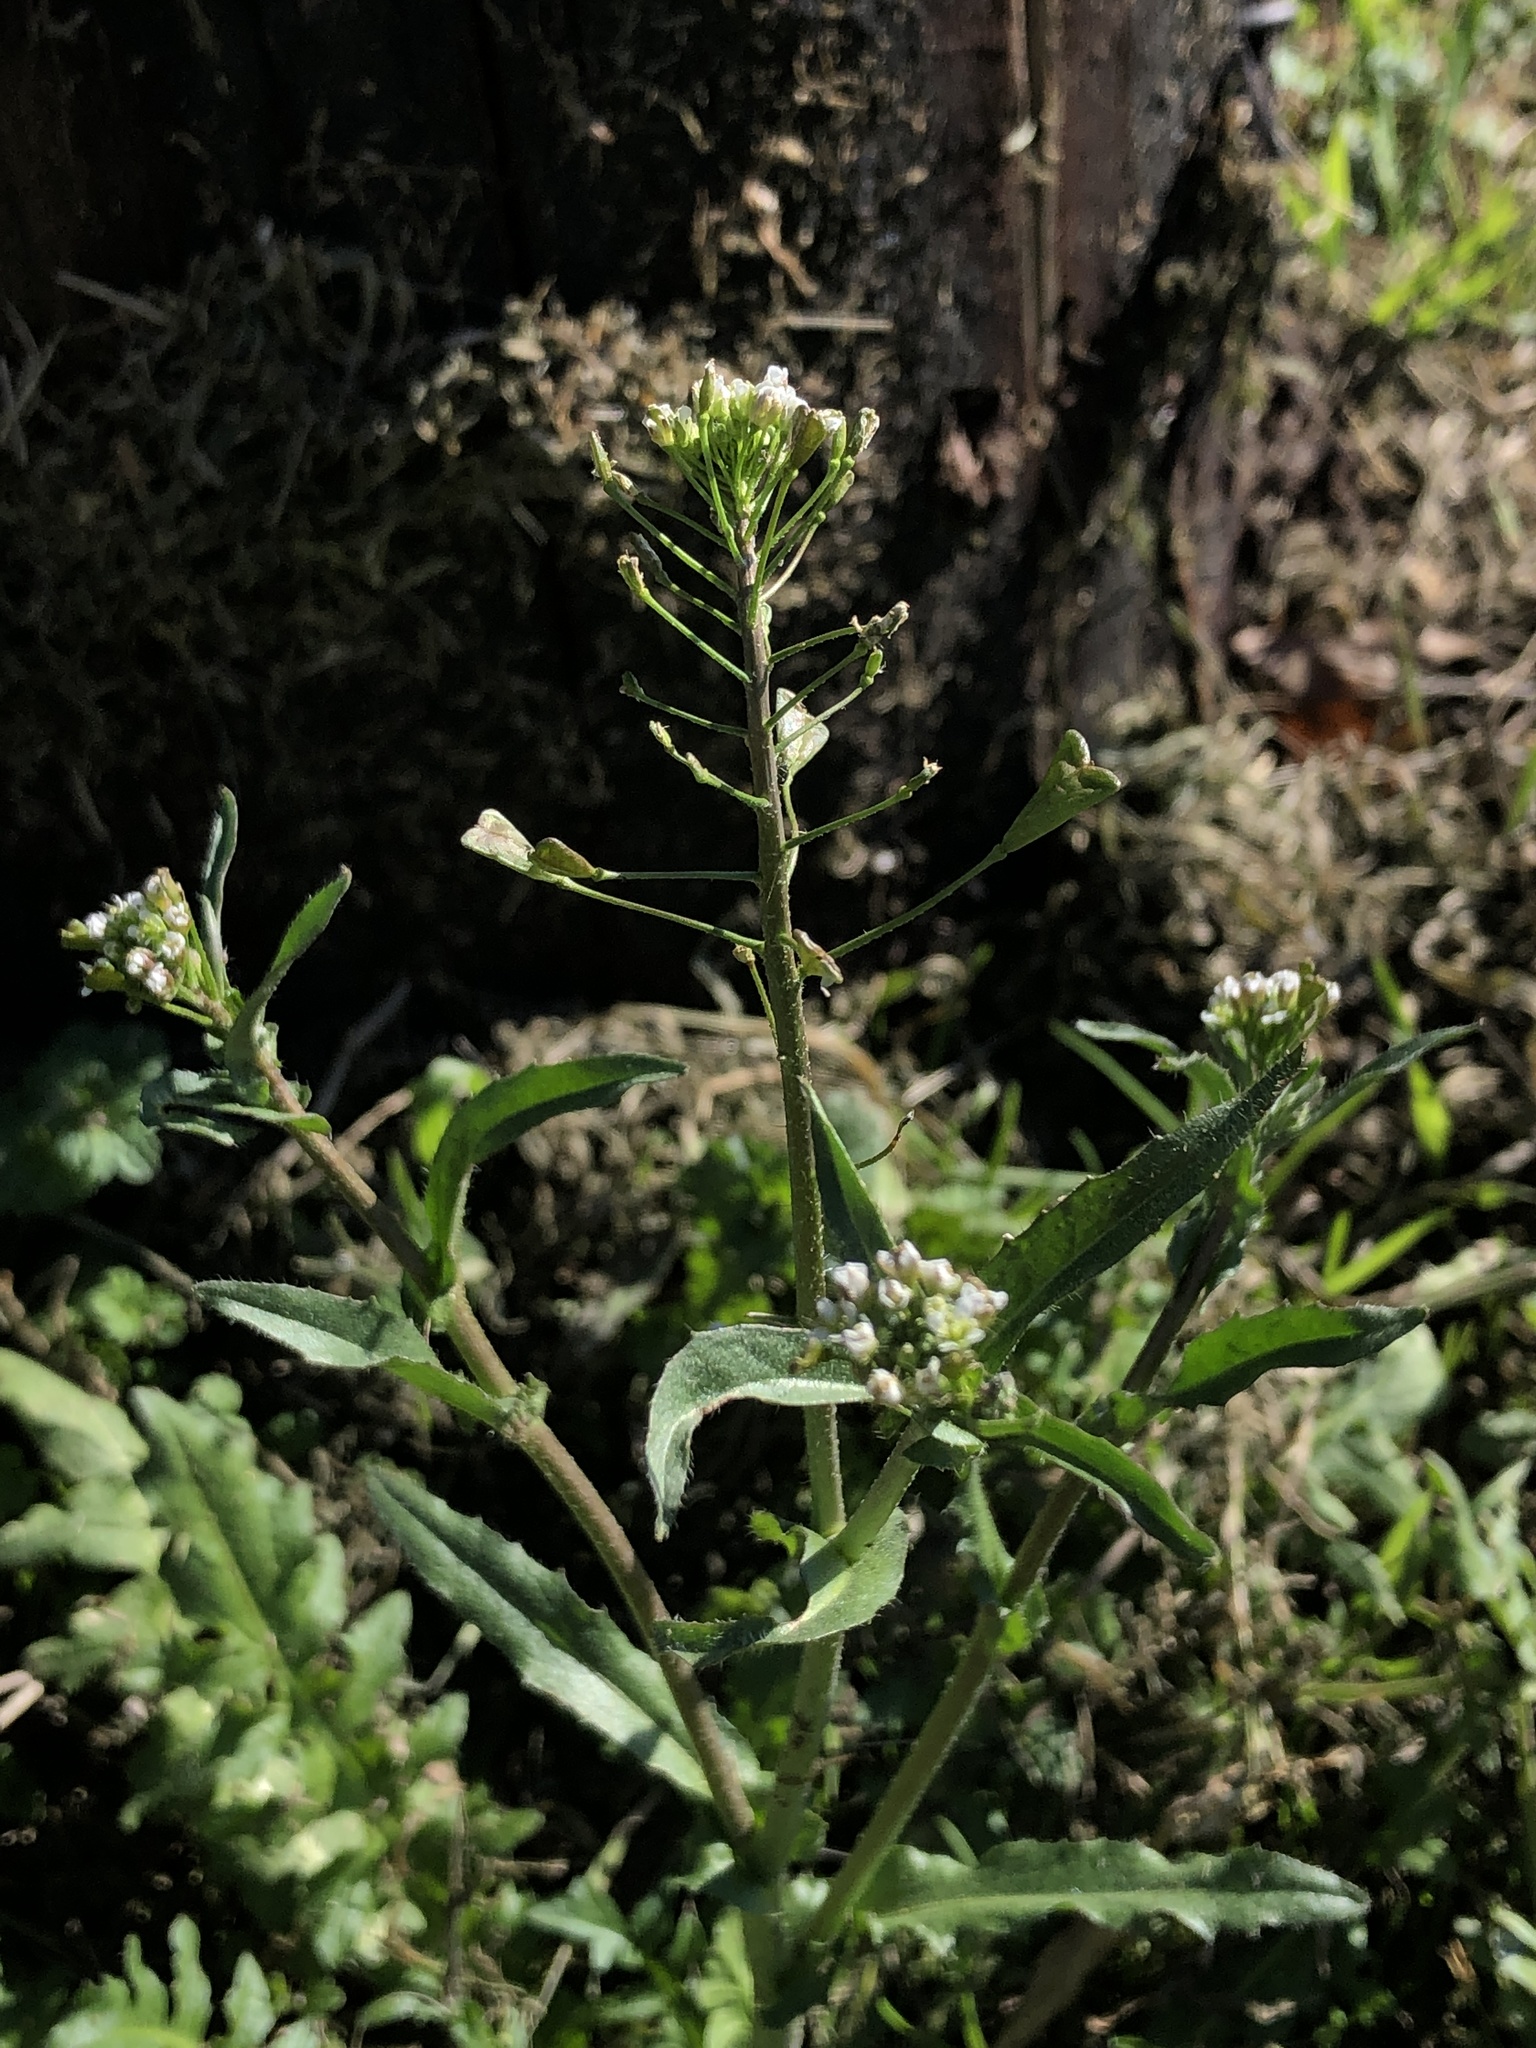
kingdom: Plantae
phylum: Tracheophyta
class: Magnoliopsida
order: Brassicales
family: Brassicaceae
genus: Capsella
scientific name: Capsella bursa-pastoris
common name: Shepherd's purse
